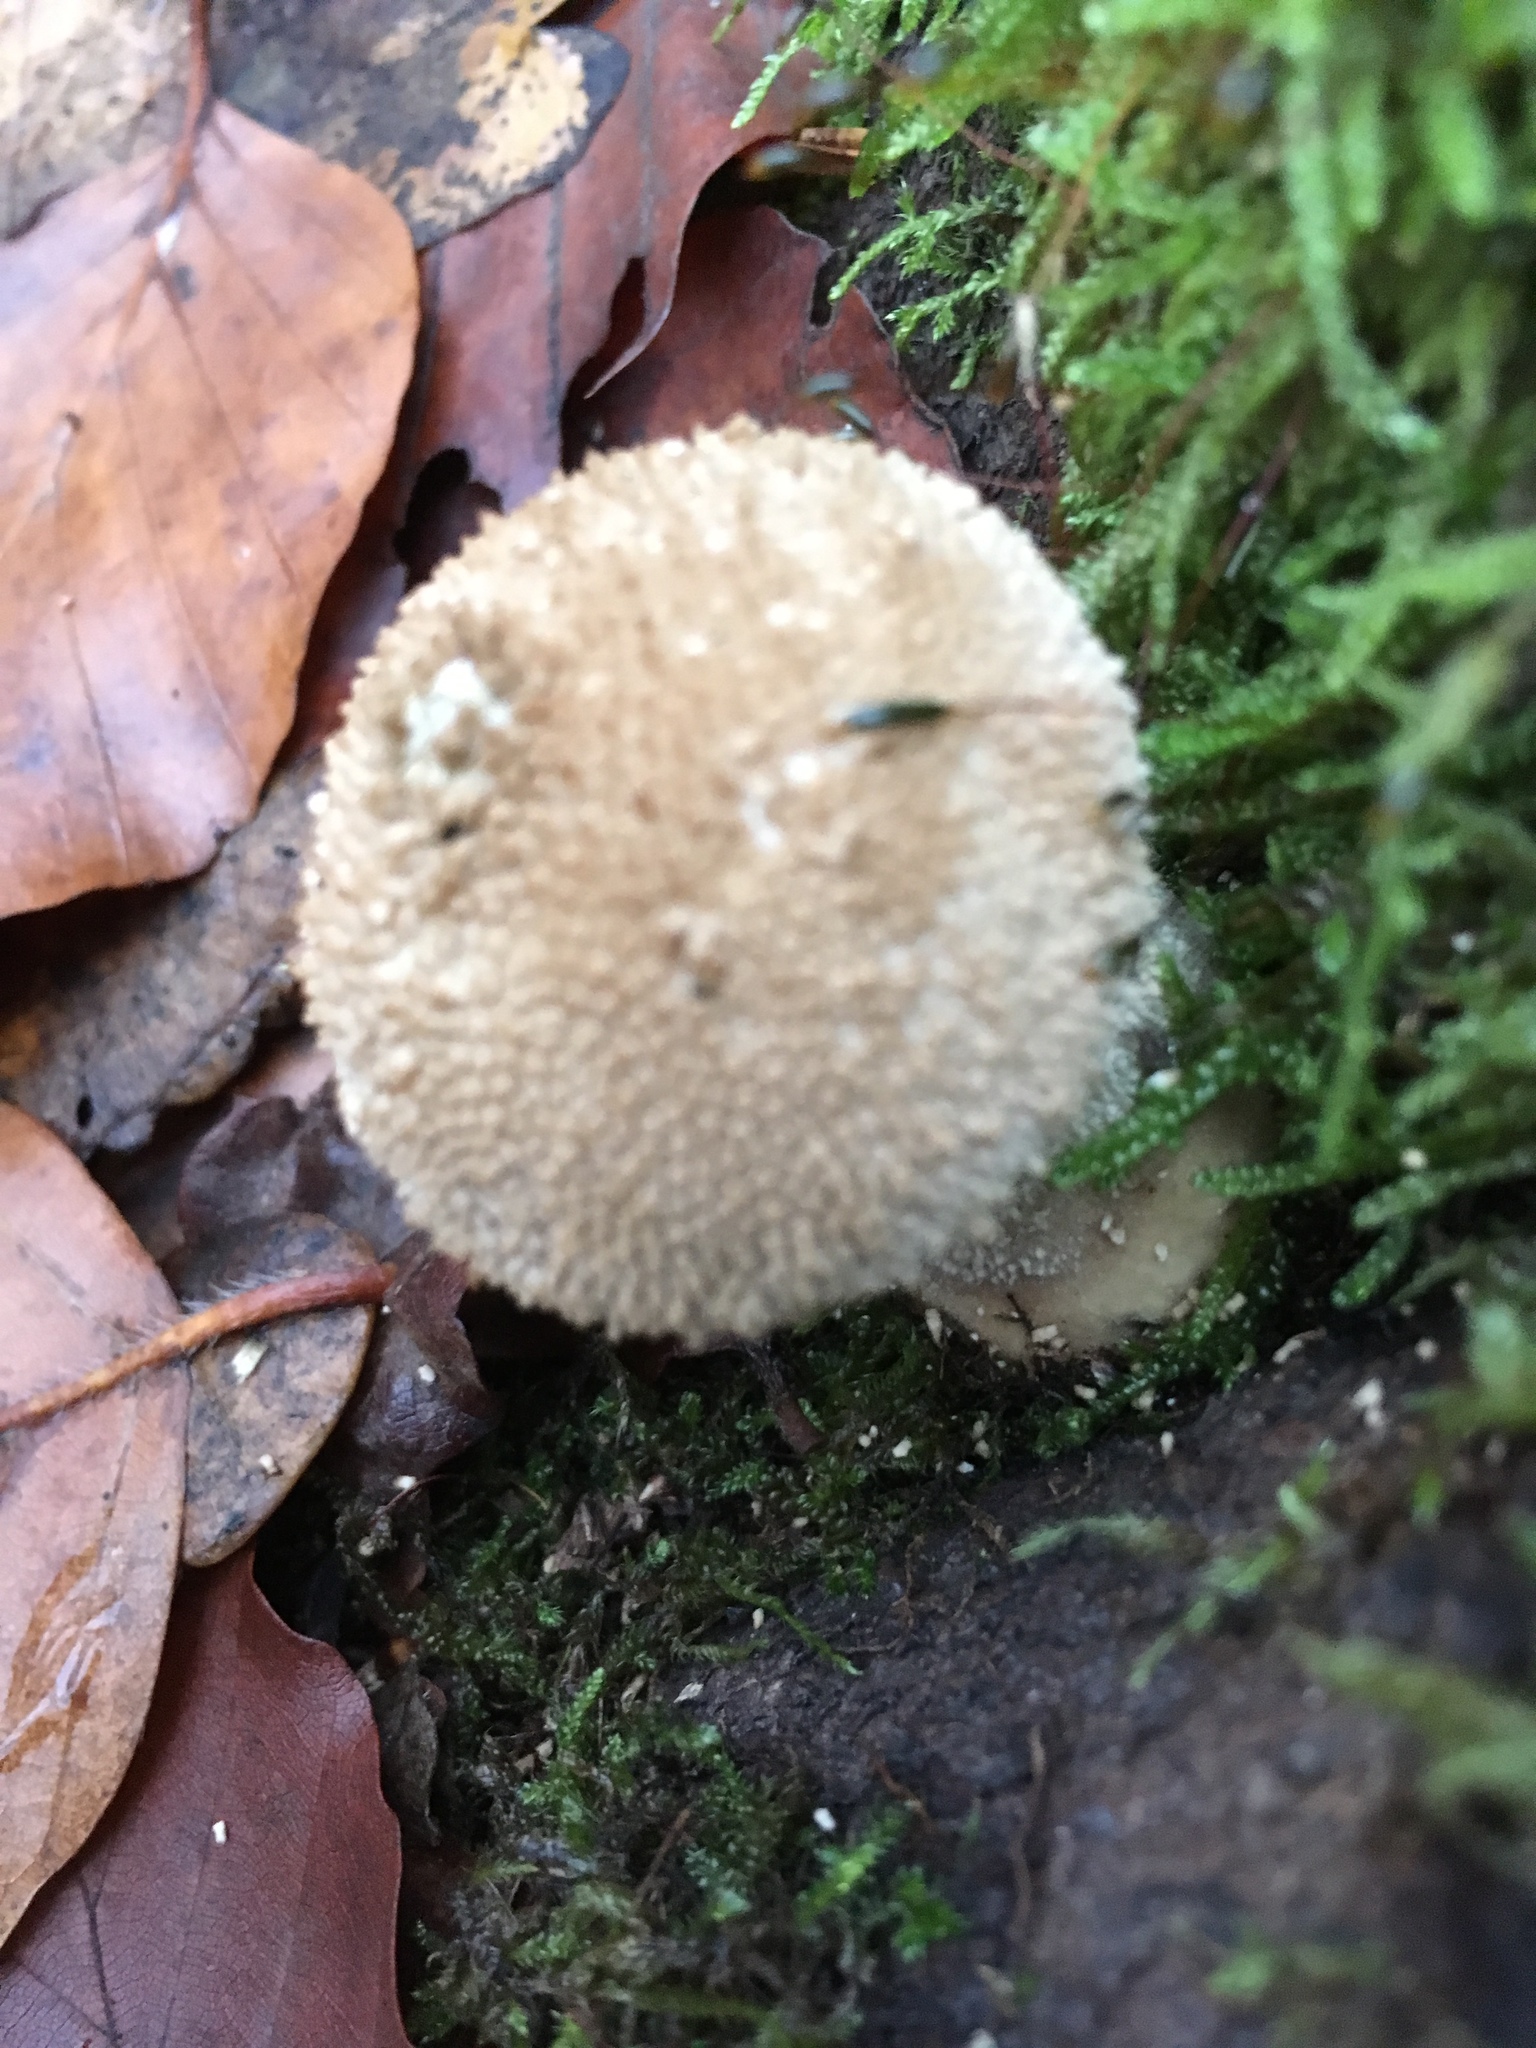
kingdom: Fungi
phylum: Basidiomycota
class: Agaricomycetes
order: Agaricales
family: Lycoperdaceae
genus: Lycoperdon
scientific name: Lycoperdon perlatum
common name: Common puffball
